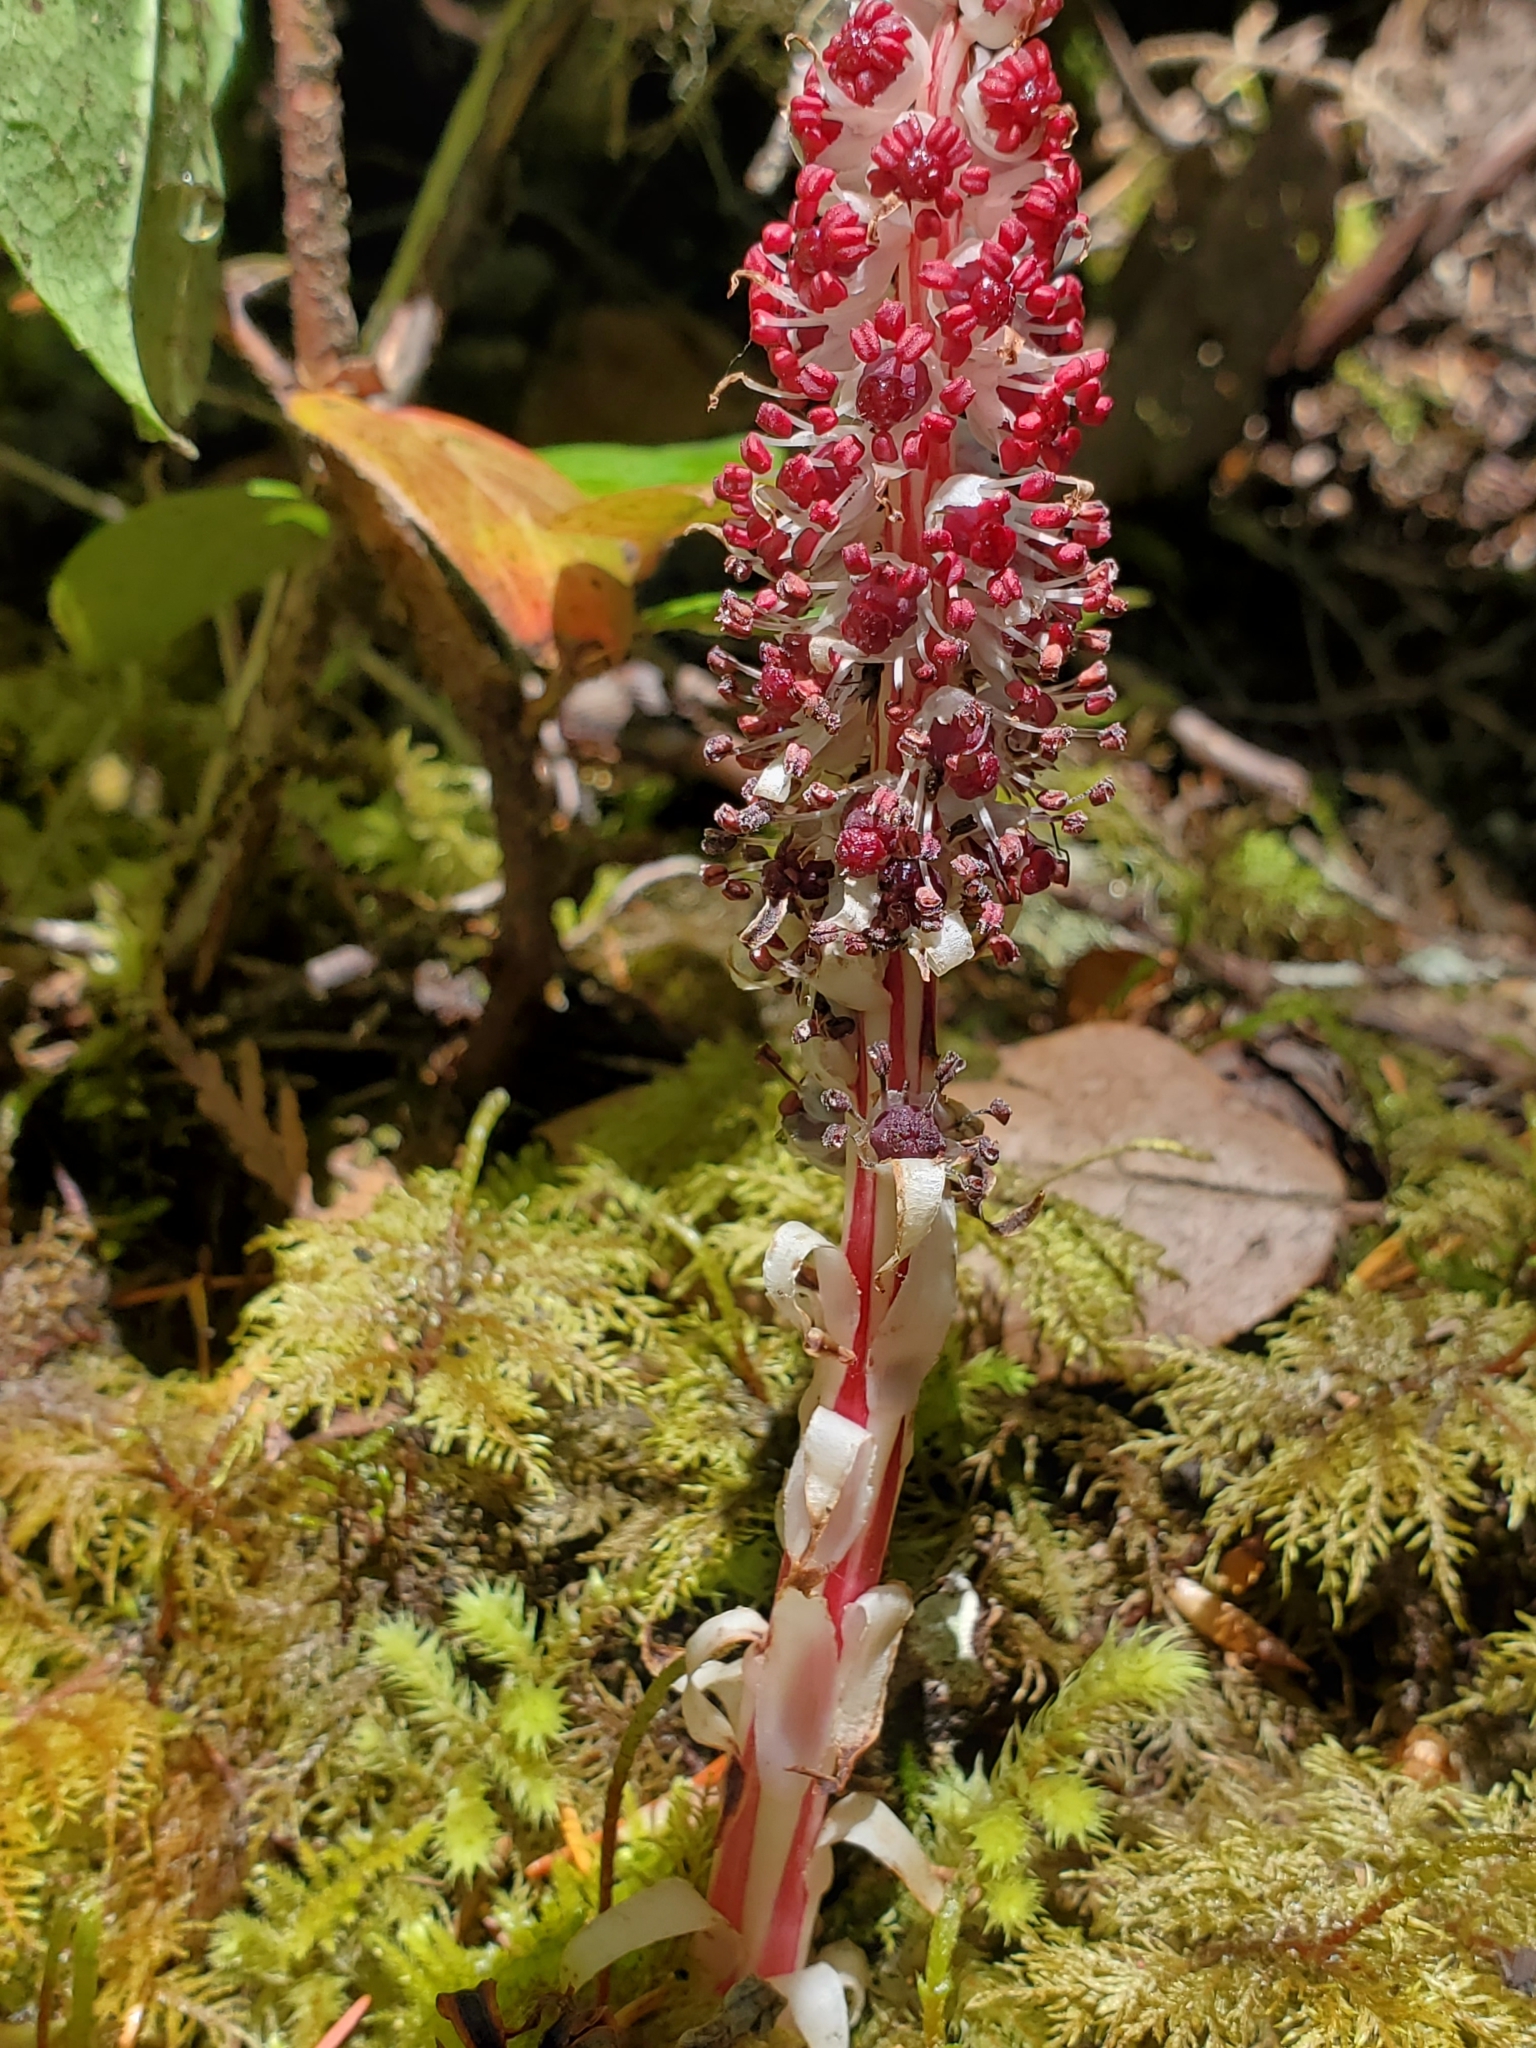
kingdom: Plantae
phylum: Tracheophyta
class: Magnoliopsida
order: Ericales
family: Ericaceae
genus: Allotropa
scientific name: Allotropa virgata
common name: Candy-striped allotropa
